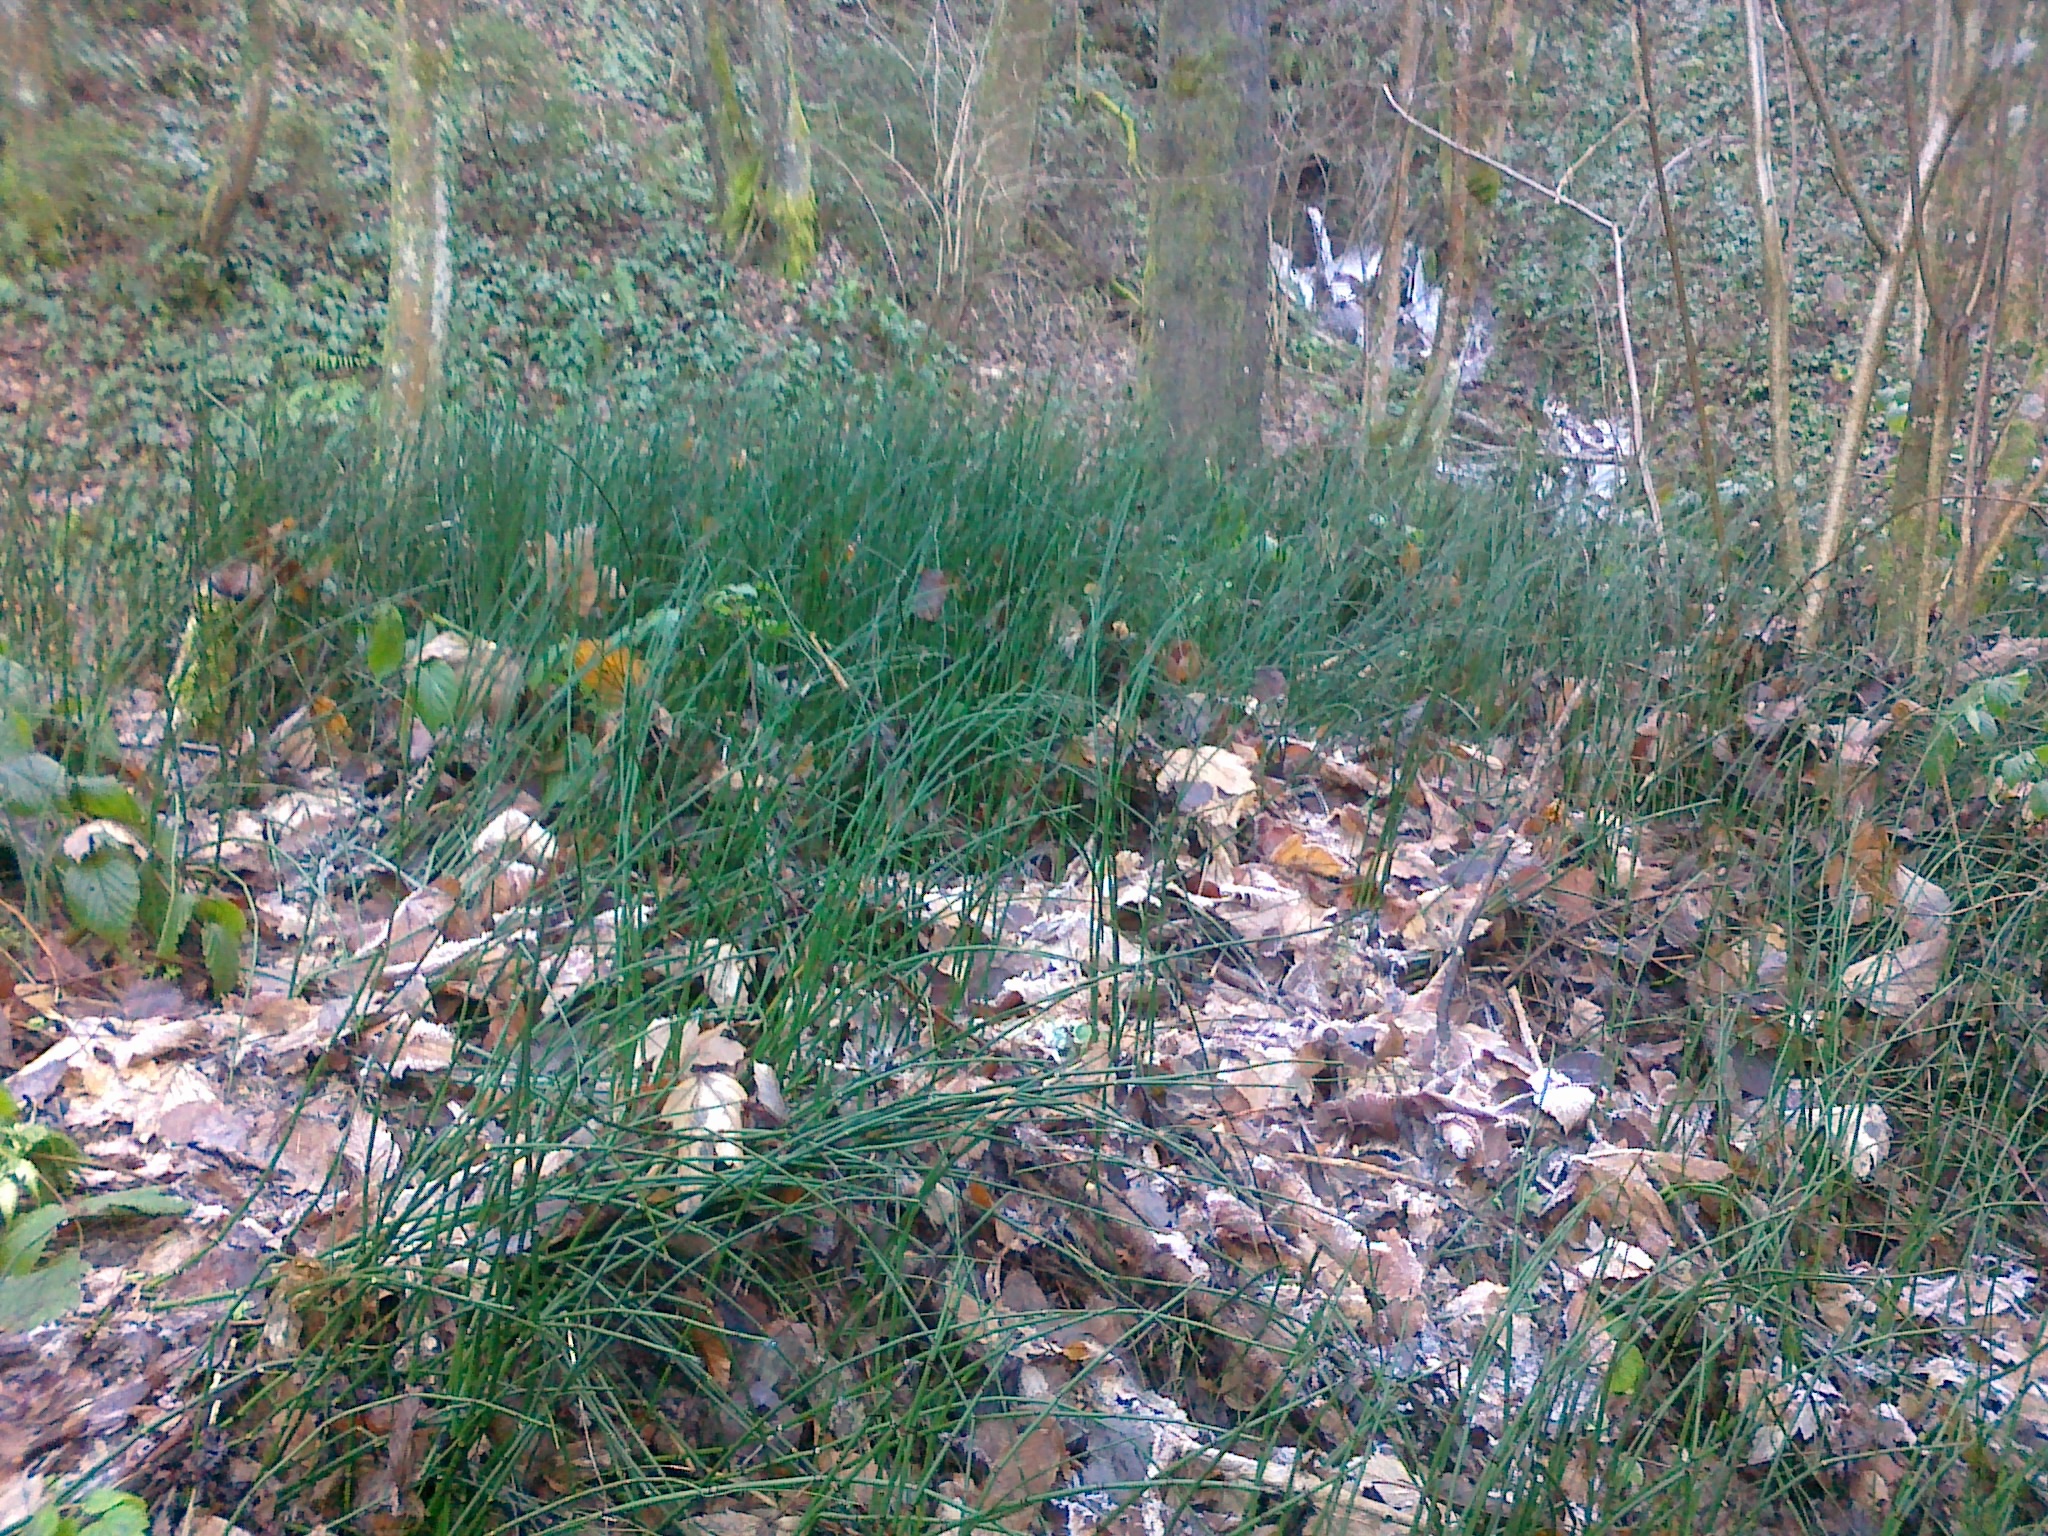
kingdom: Plantae
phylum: Tracheophyta
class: Polypodiopsida
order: Equisetales
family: Equisetaceae
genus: Equisetum
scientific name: Equisetum hyemale
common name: Rough horsetail
